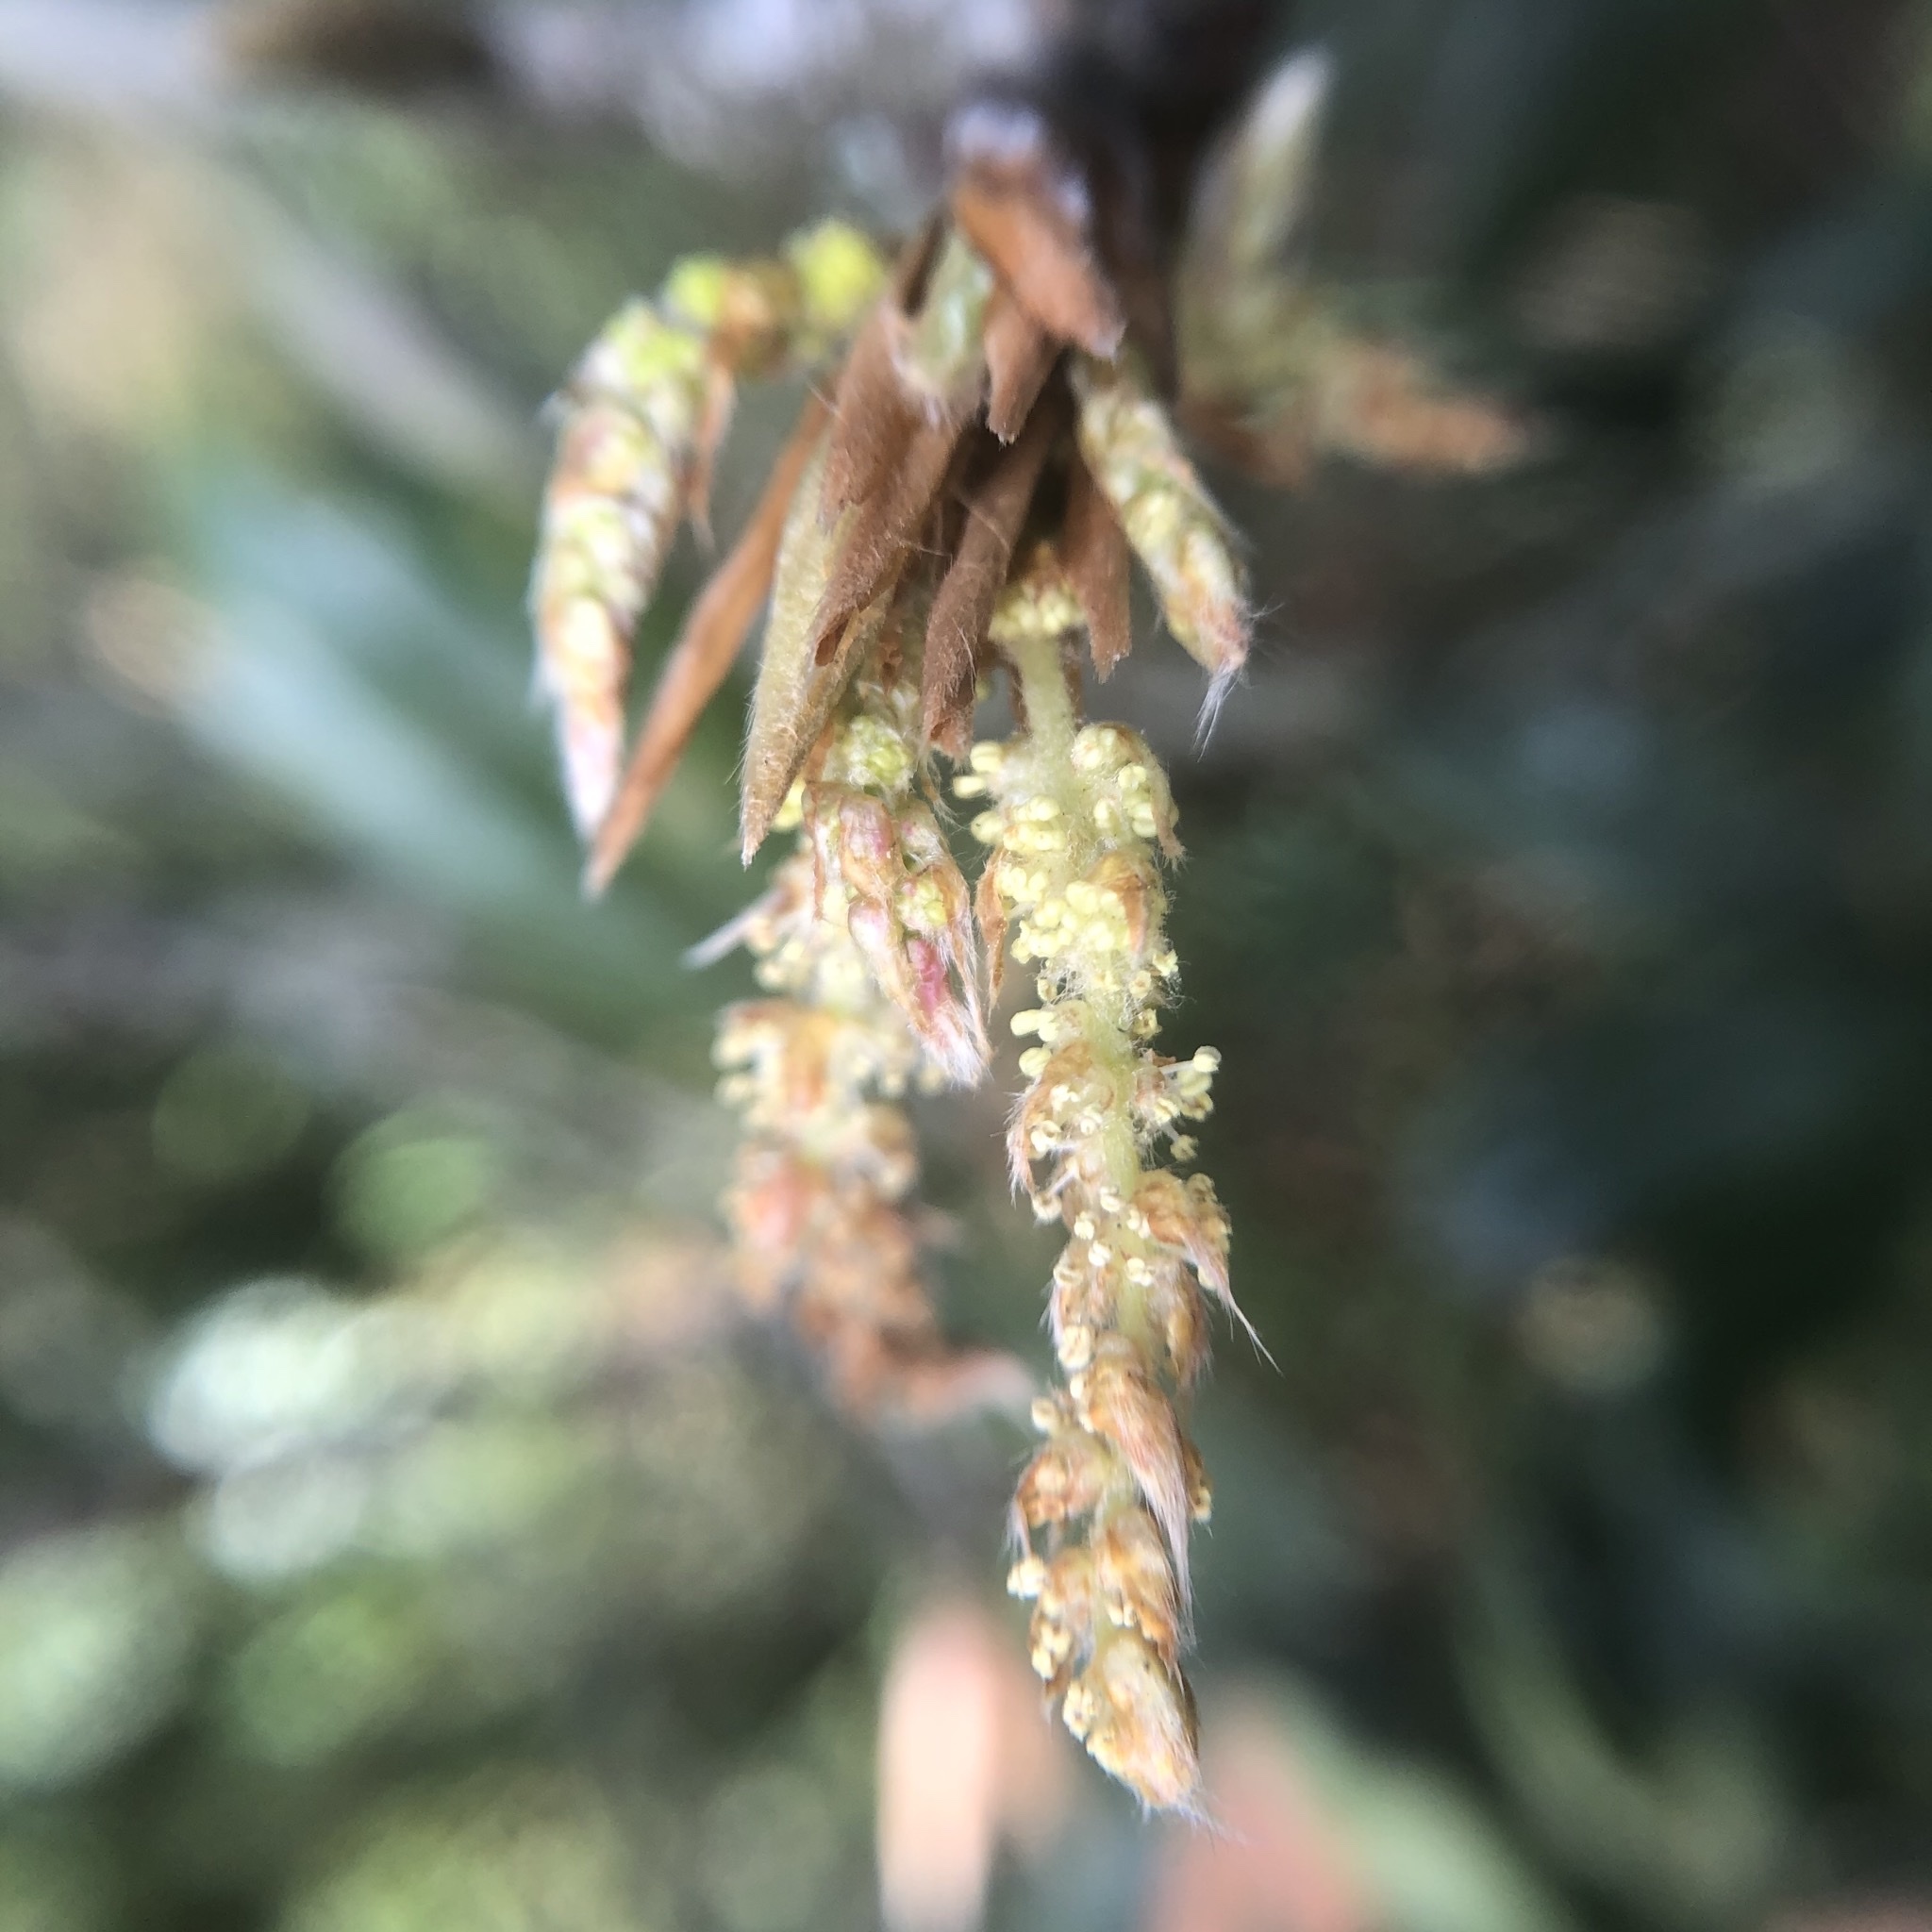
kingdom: Plantae
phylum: Tracheophyta
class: Magnoliopsida
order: Fagales
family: Fagaceae
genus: Quercus
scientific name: Quercus sessilifolia
